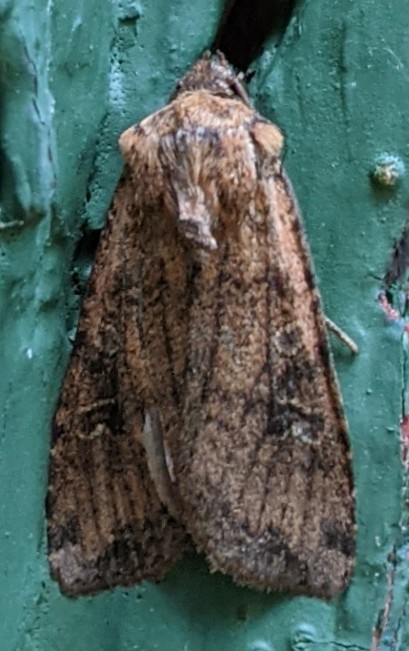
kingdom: Animalia
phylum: Arthropoda
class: Insecta
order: Lepidoptera
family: Noctuidae
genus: Euxoa
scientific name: Euxoa ochrogaster
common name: Red-backed cutworm moth
